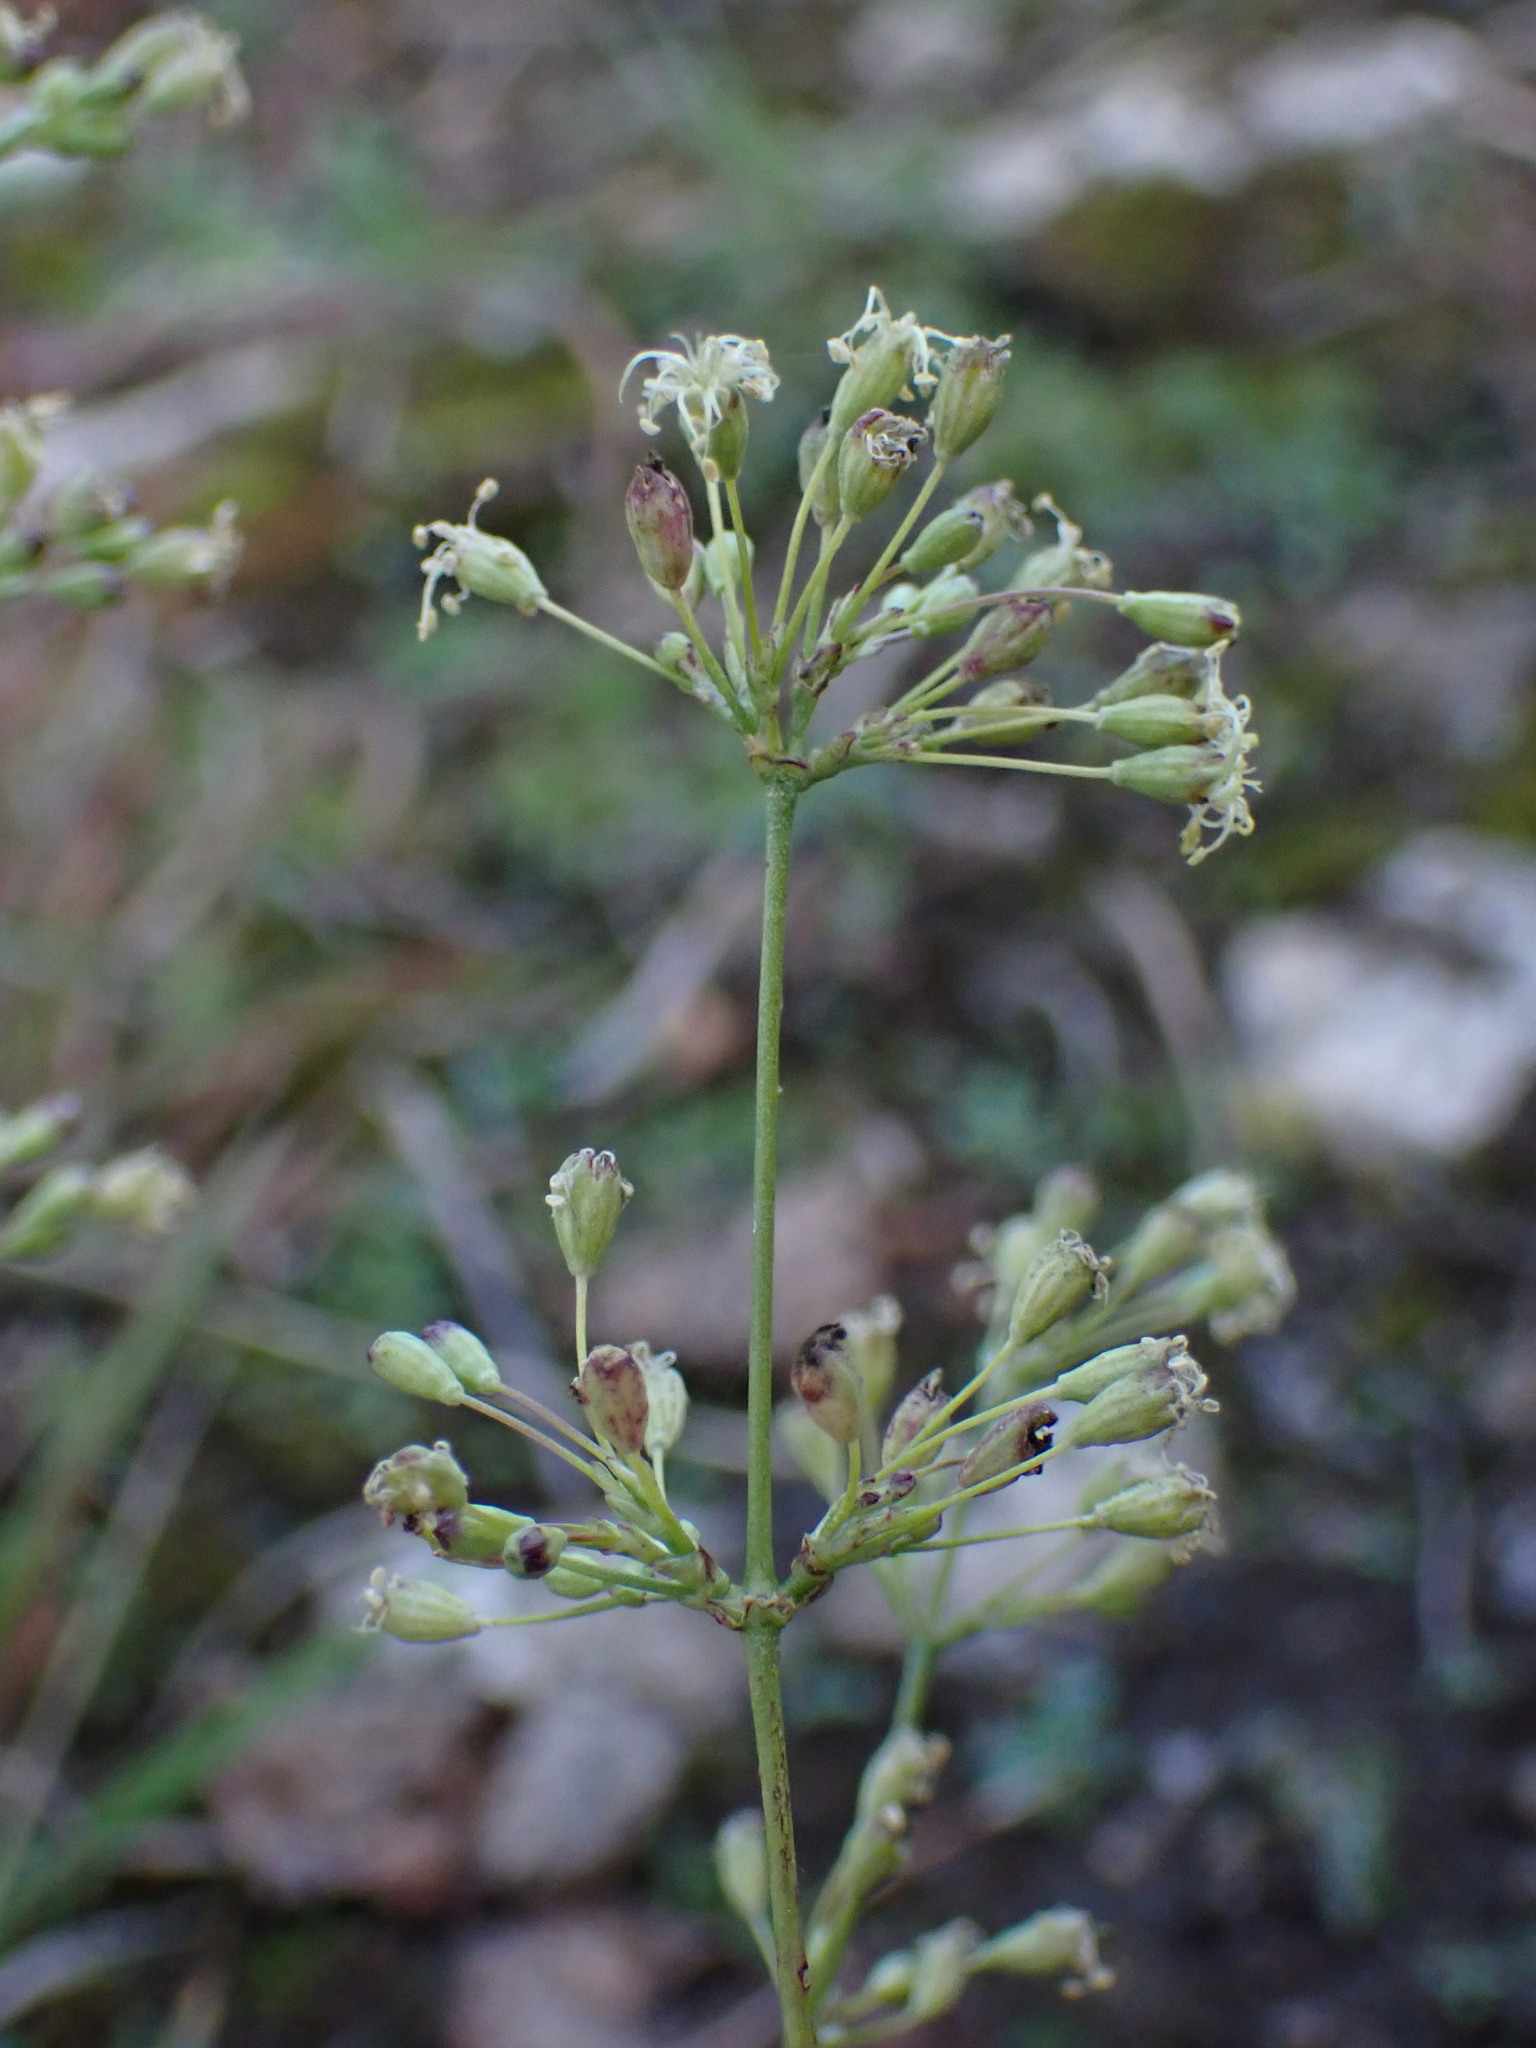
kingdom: Plantae
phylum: Tracheophyta
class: Magnoliopsida
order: Caryophyllales
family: Caryophyllaceae
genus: Silene
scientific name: Silene otites
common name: Spanish catchfly
